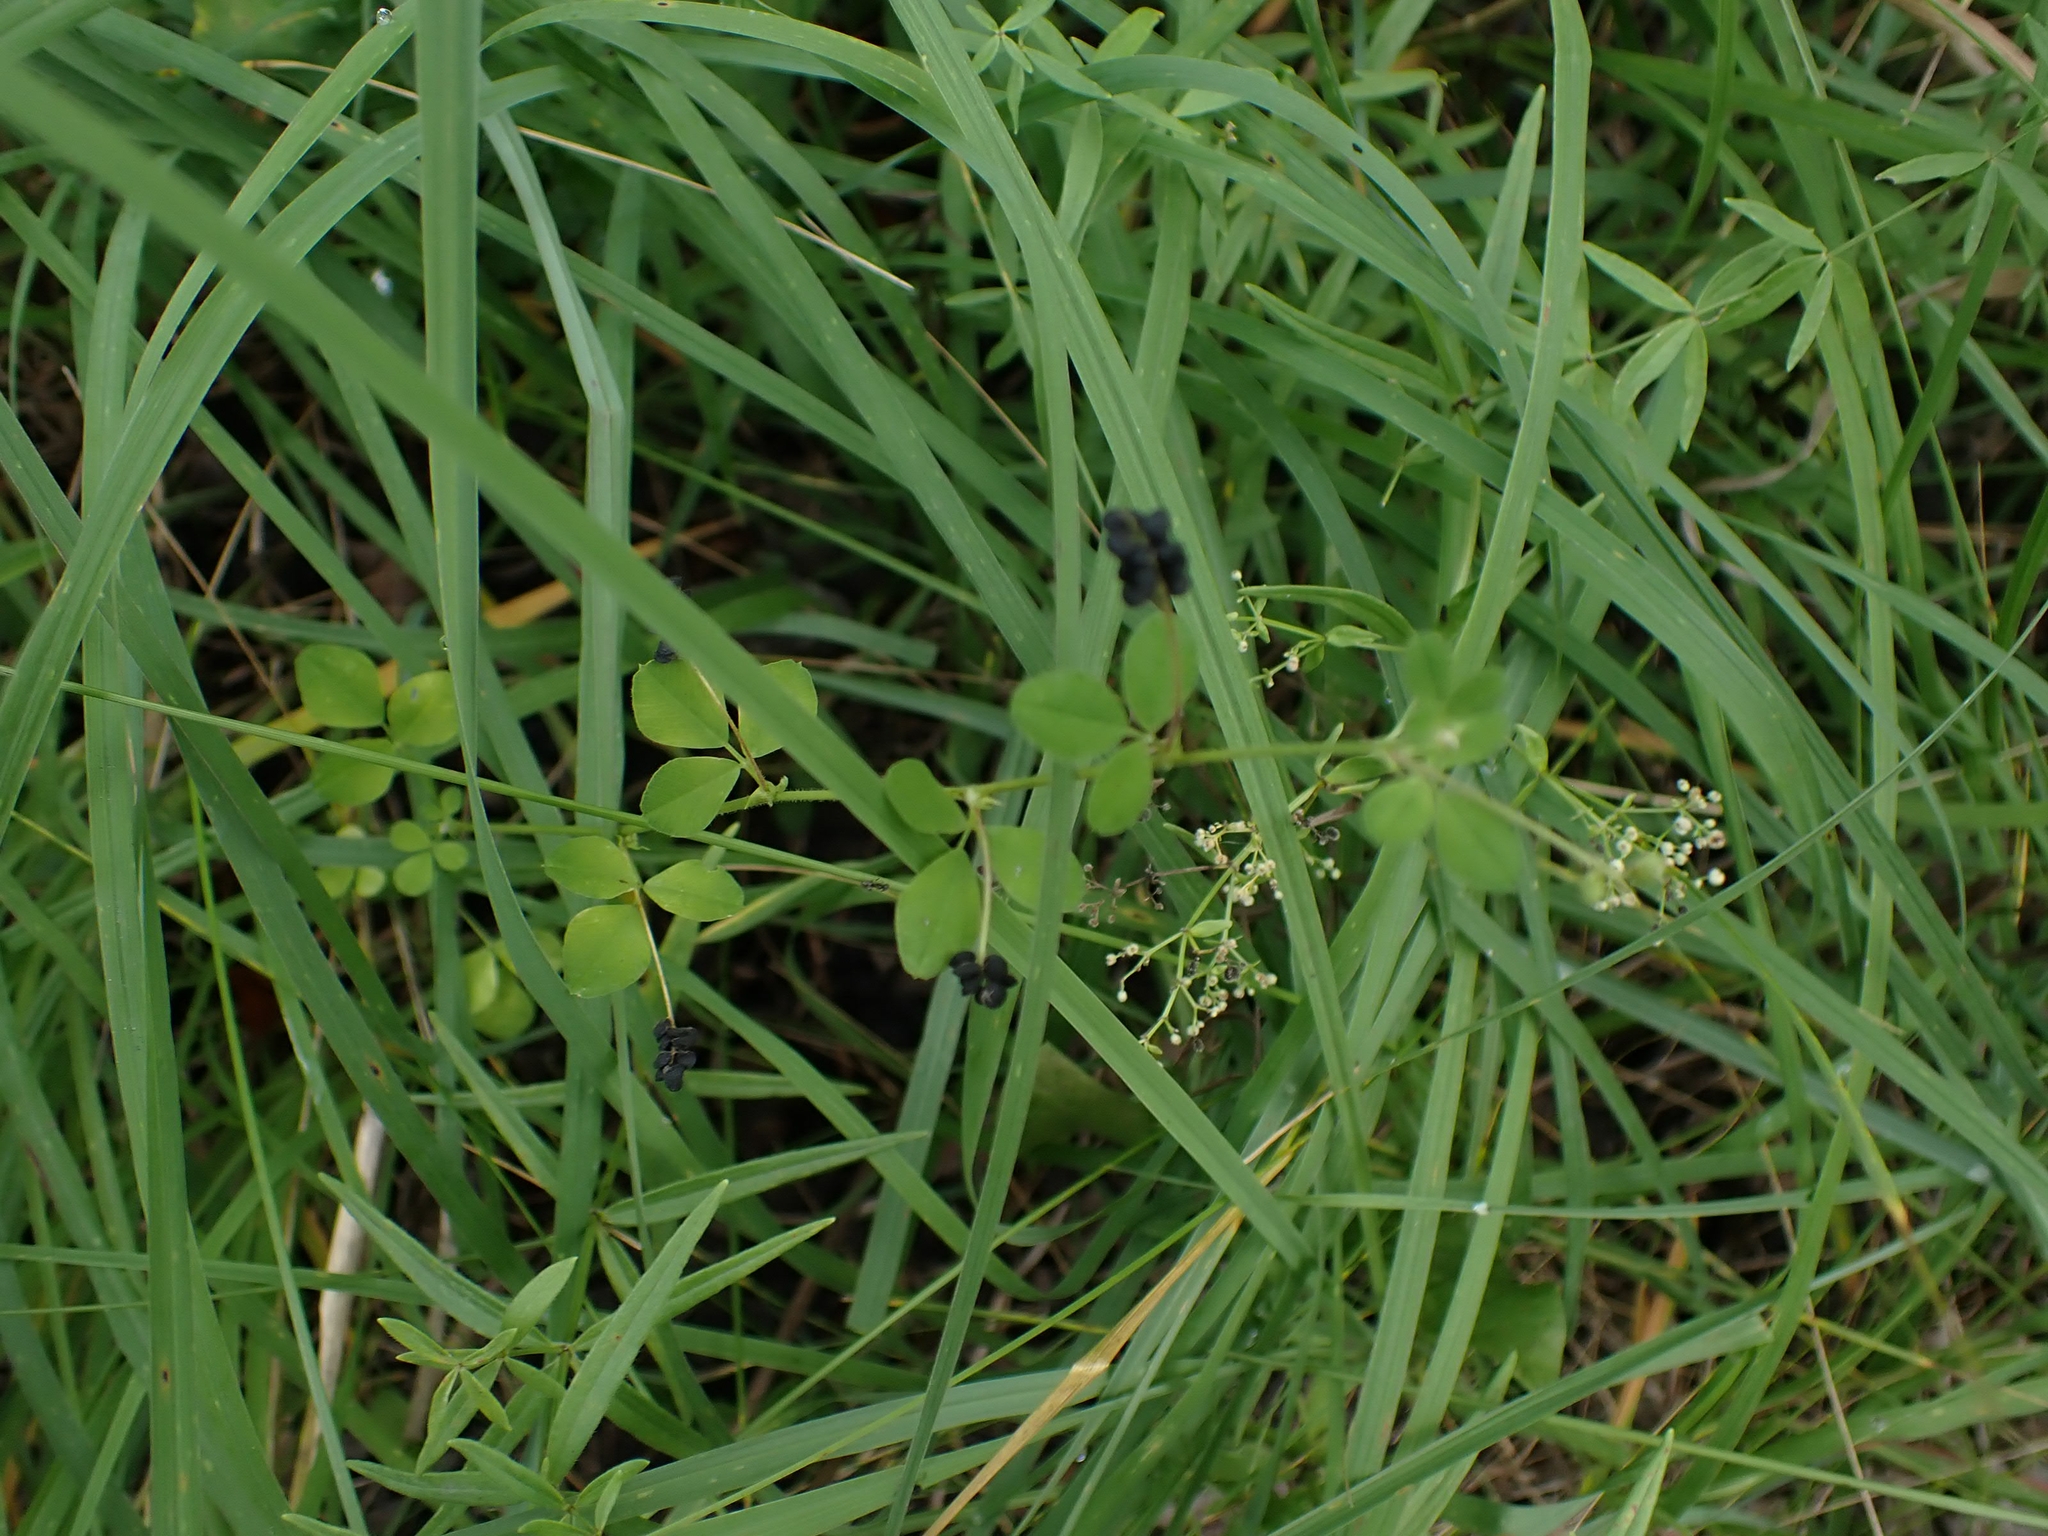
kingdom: Plantae
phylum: Tracheophyta
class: Magnoliopsida
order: Fabales
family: Fabaceae
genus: Medicago
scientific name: Medicago lupulina
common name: Black medick
